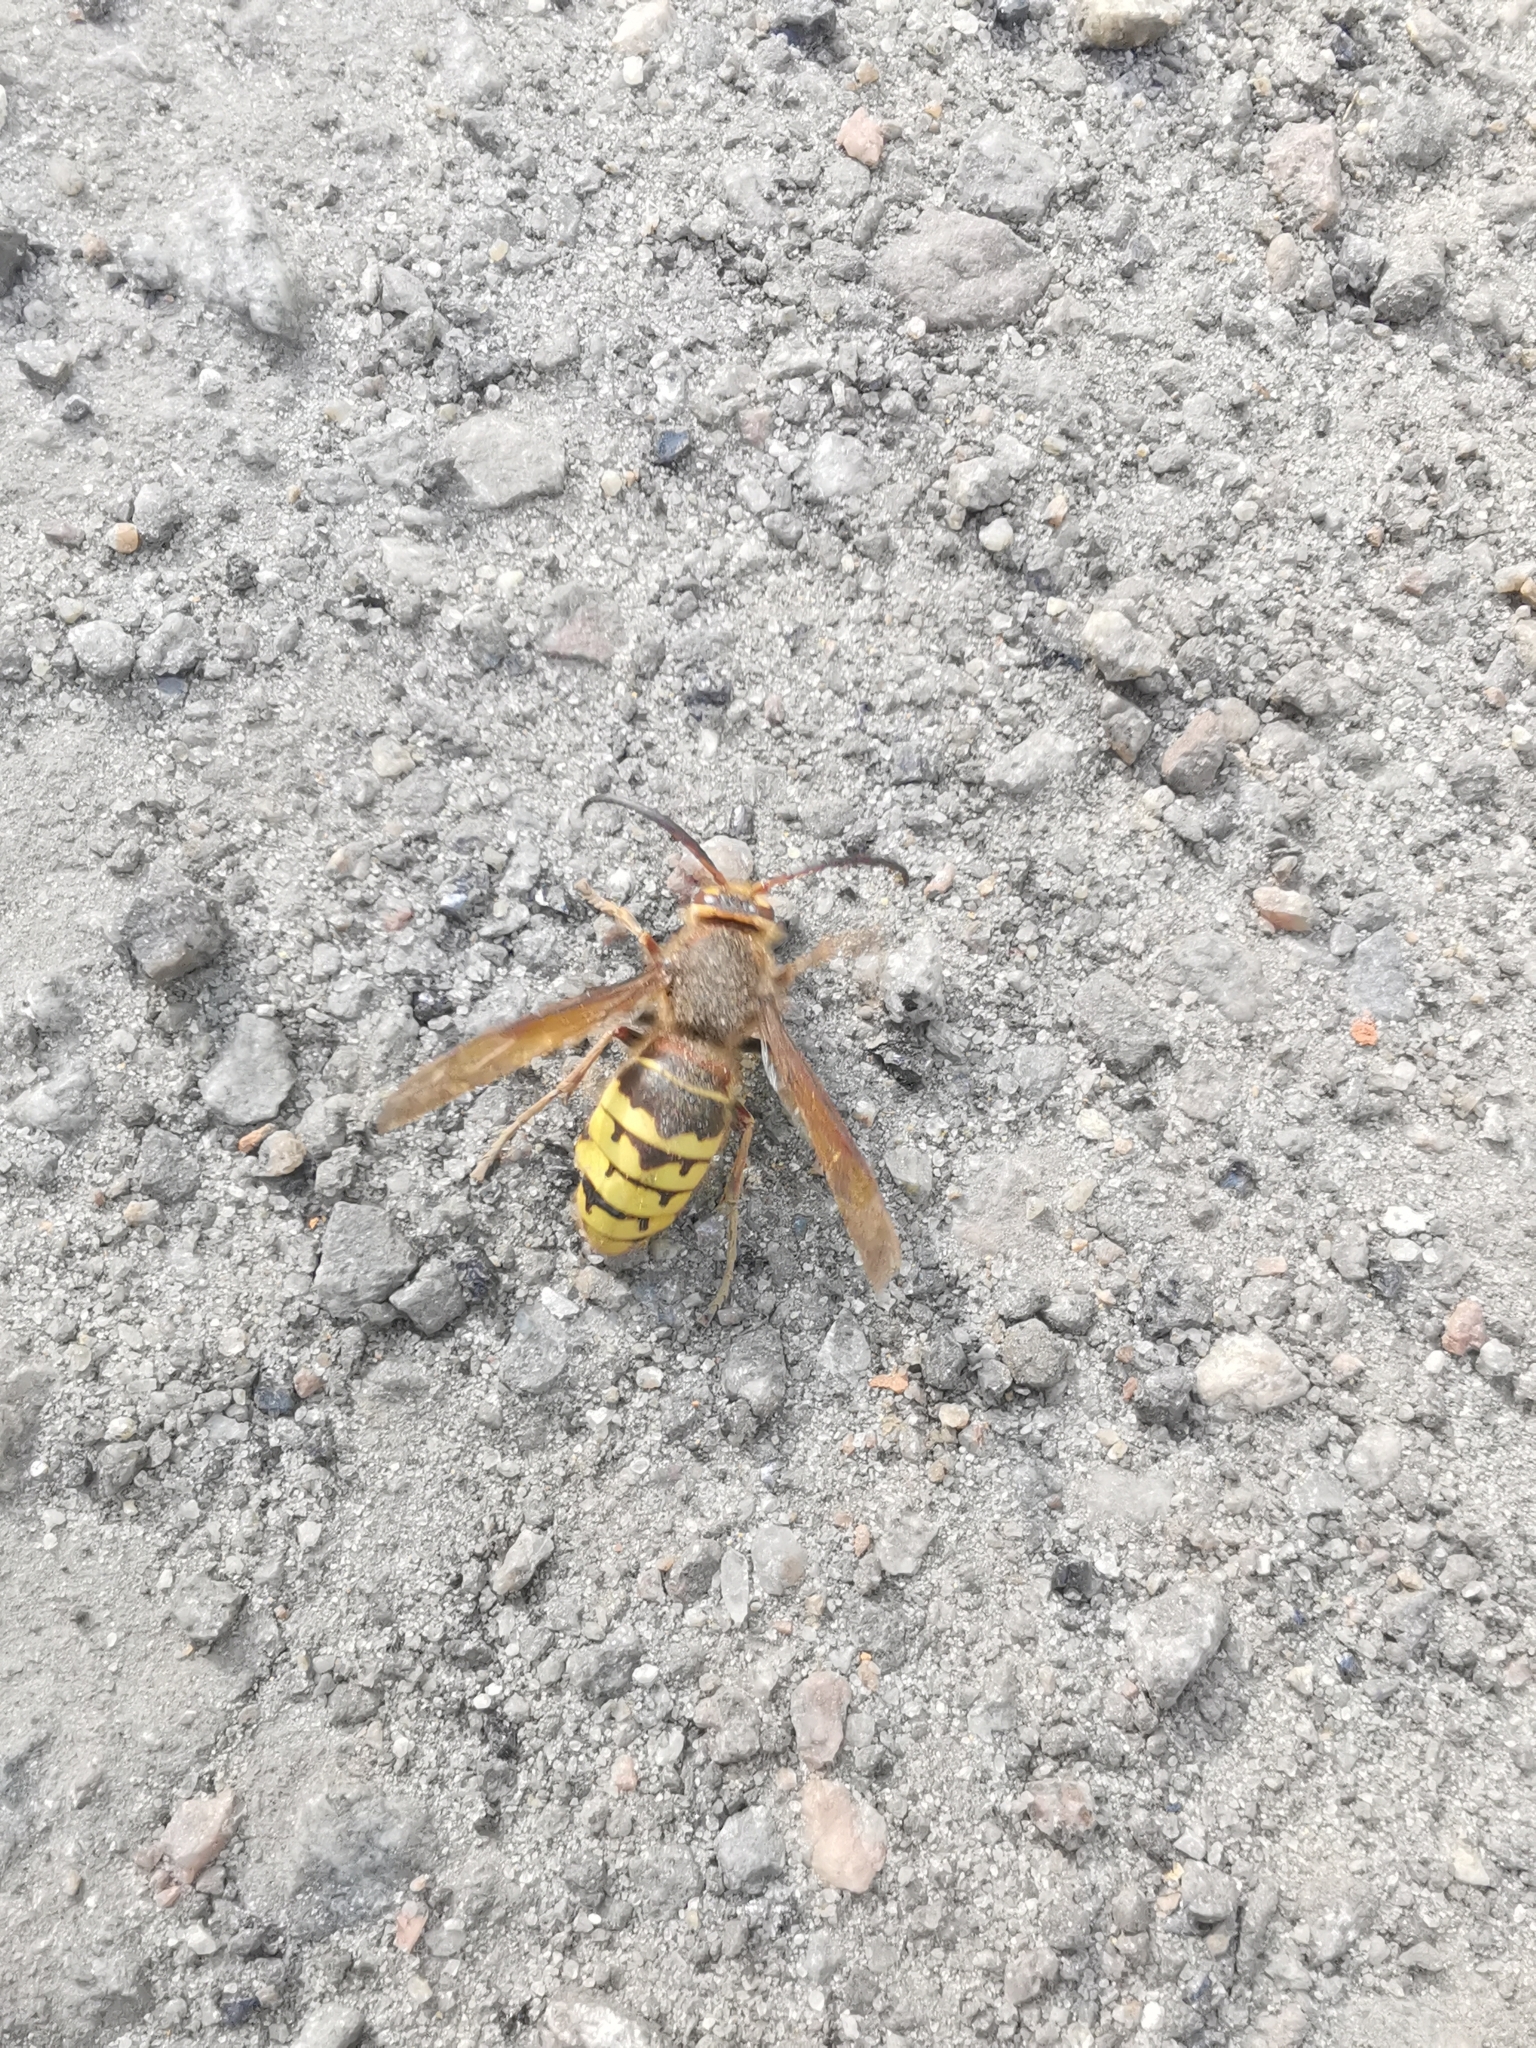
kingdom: Animalia
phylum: Arthropoda
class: Insecta
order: Hymenoptera
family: Vespidae
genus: Vespa
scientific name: Vespa crabro
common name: Hornet
